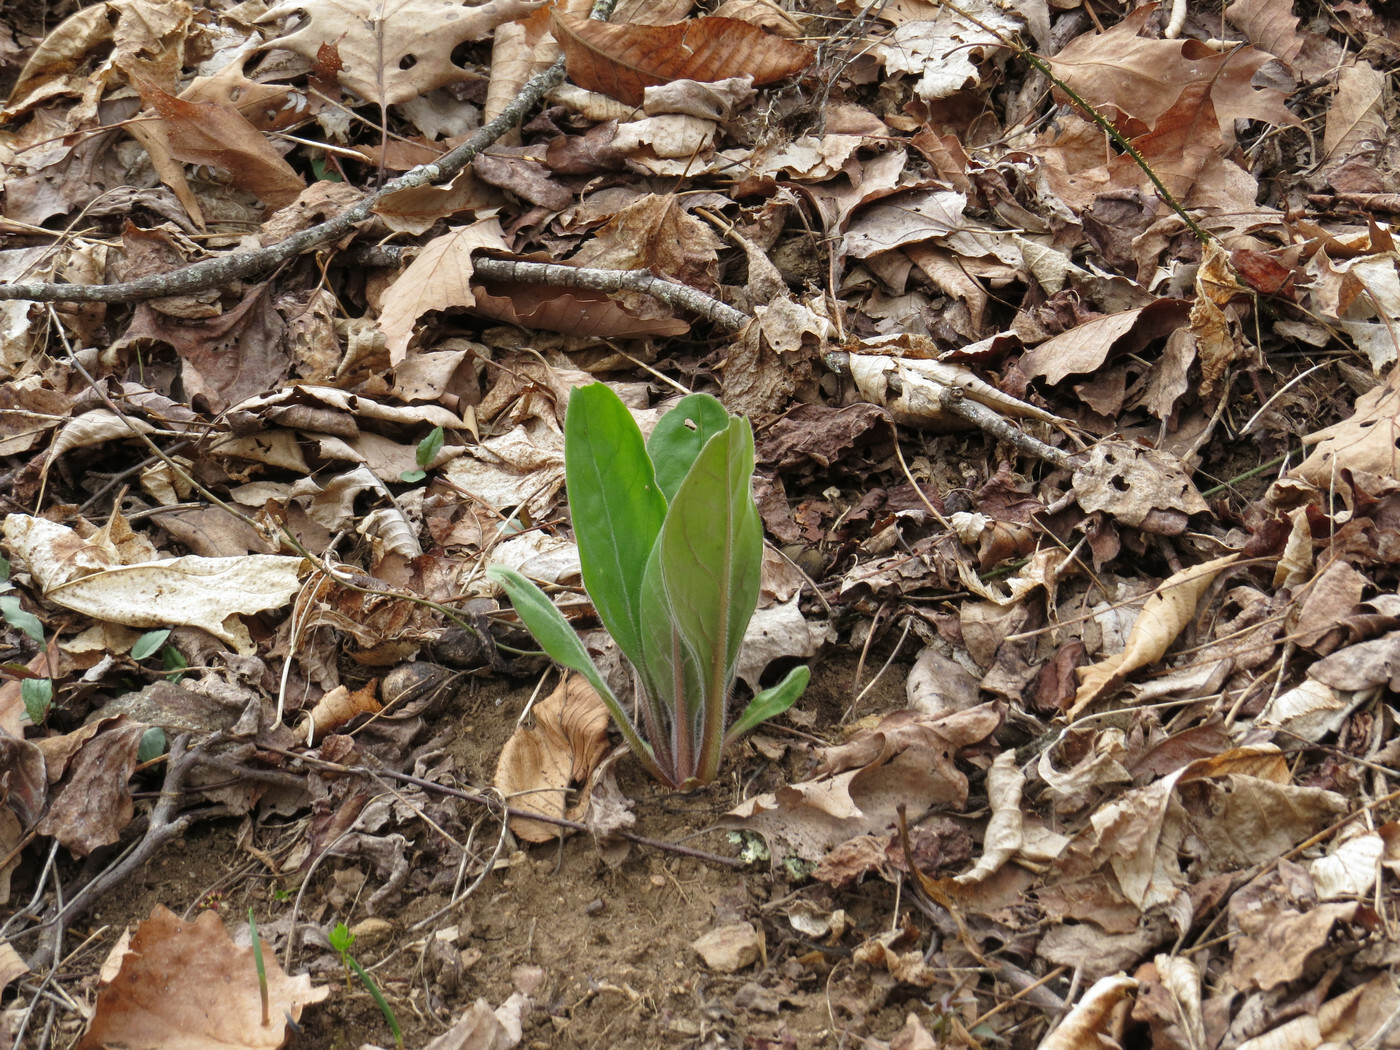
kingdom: Plantae
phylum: Tracheophyta
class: Magnoliopsida
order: Boraginales
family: Boraginaceae
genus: Andersonglossum
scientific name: Andersonglossum virginianum
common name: Wild comfrey
